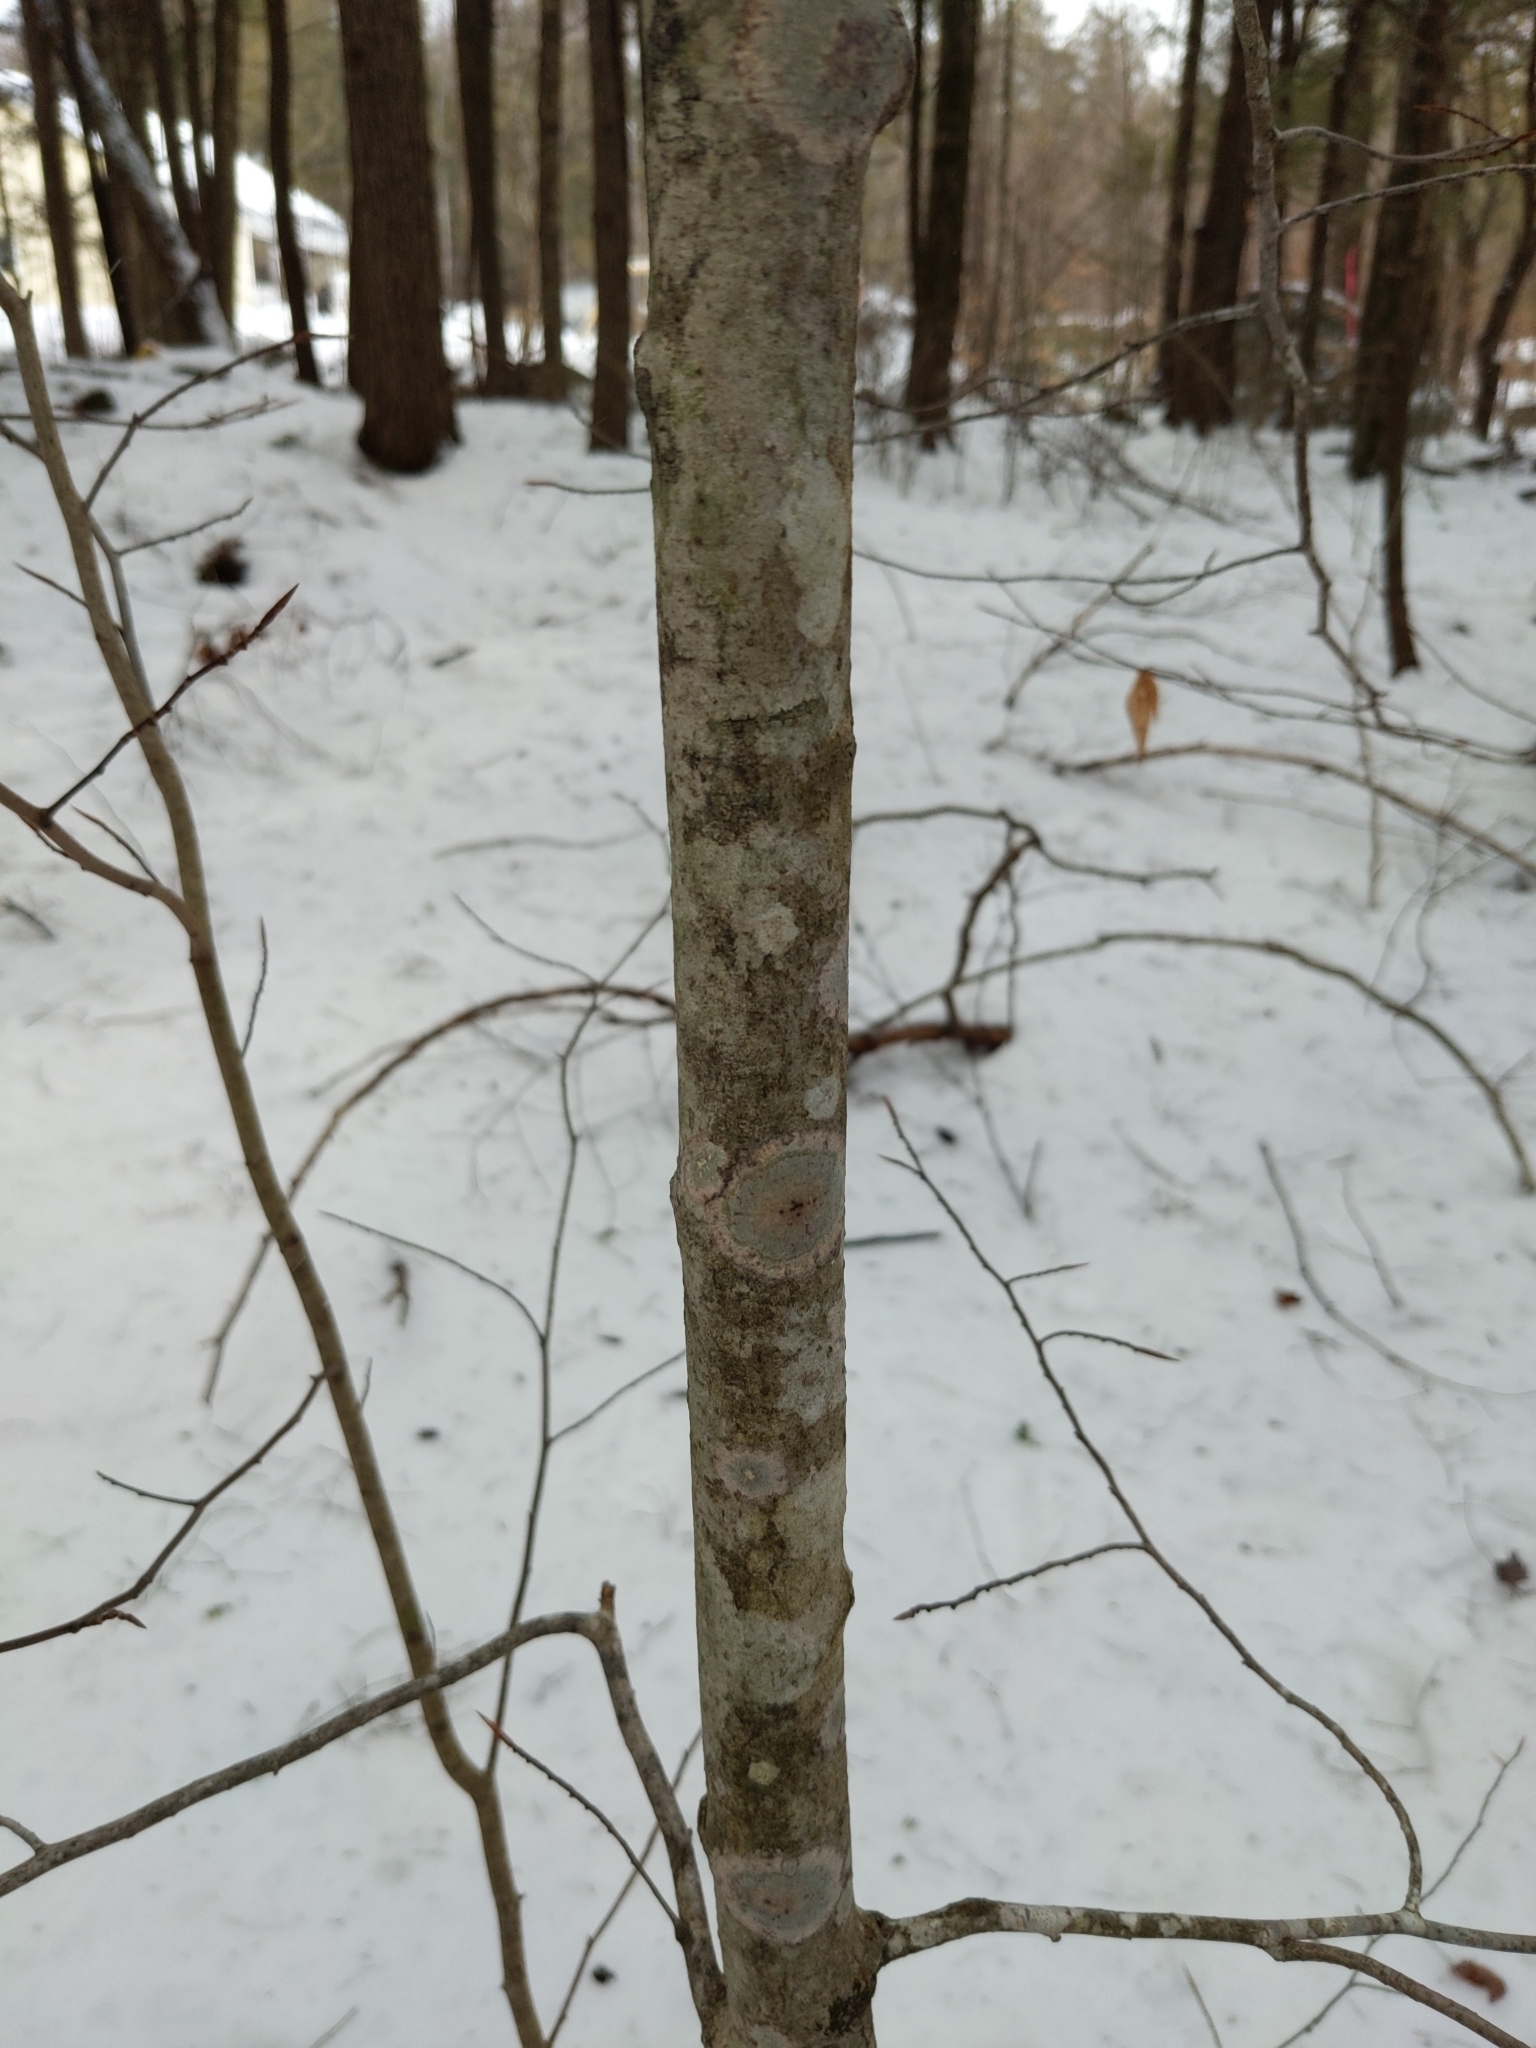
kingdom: Plantae
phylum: Tracheophyta
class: Magnoliopsida
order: Fagales
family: Fagaceae
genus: Fagus
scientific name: Fagus grandifolia
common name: American beech
